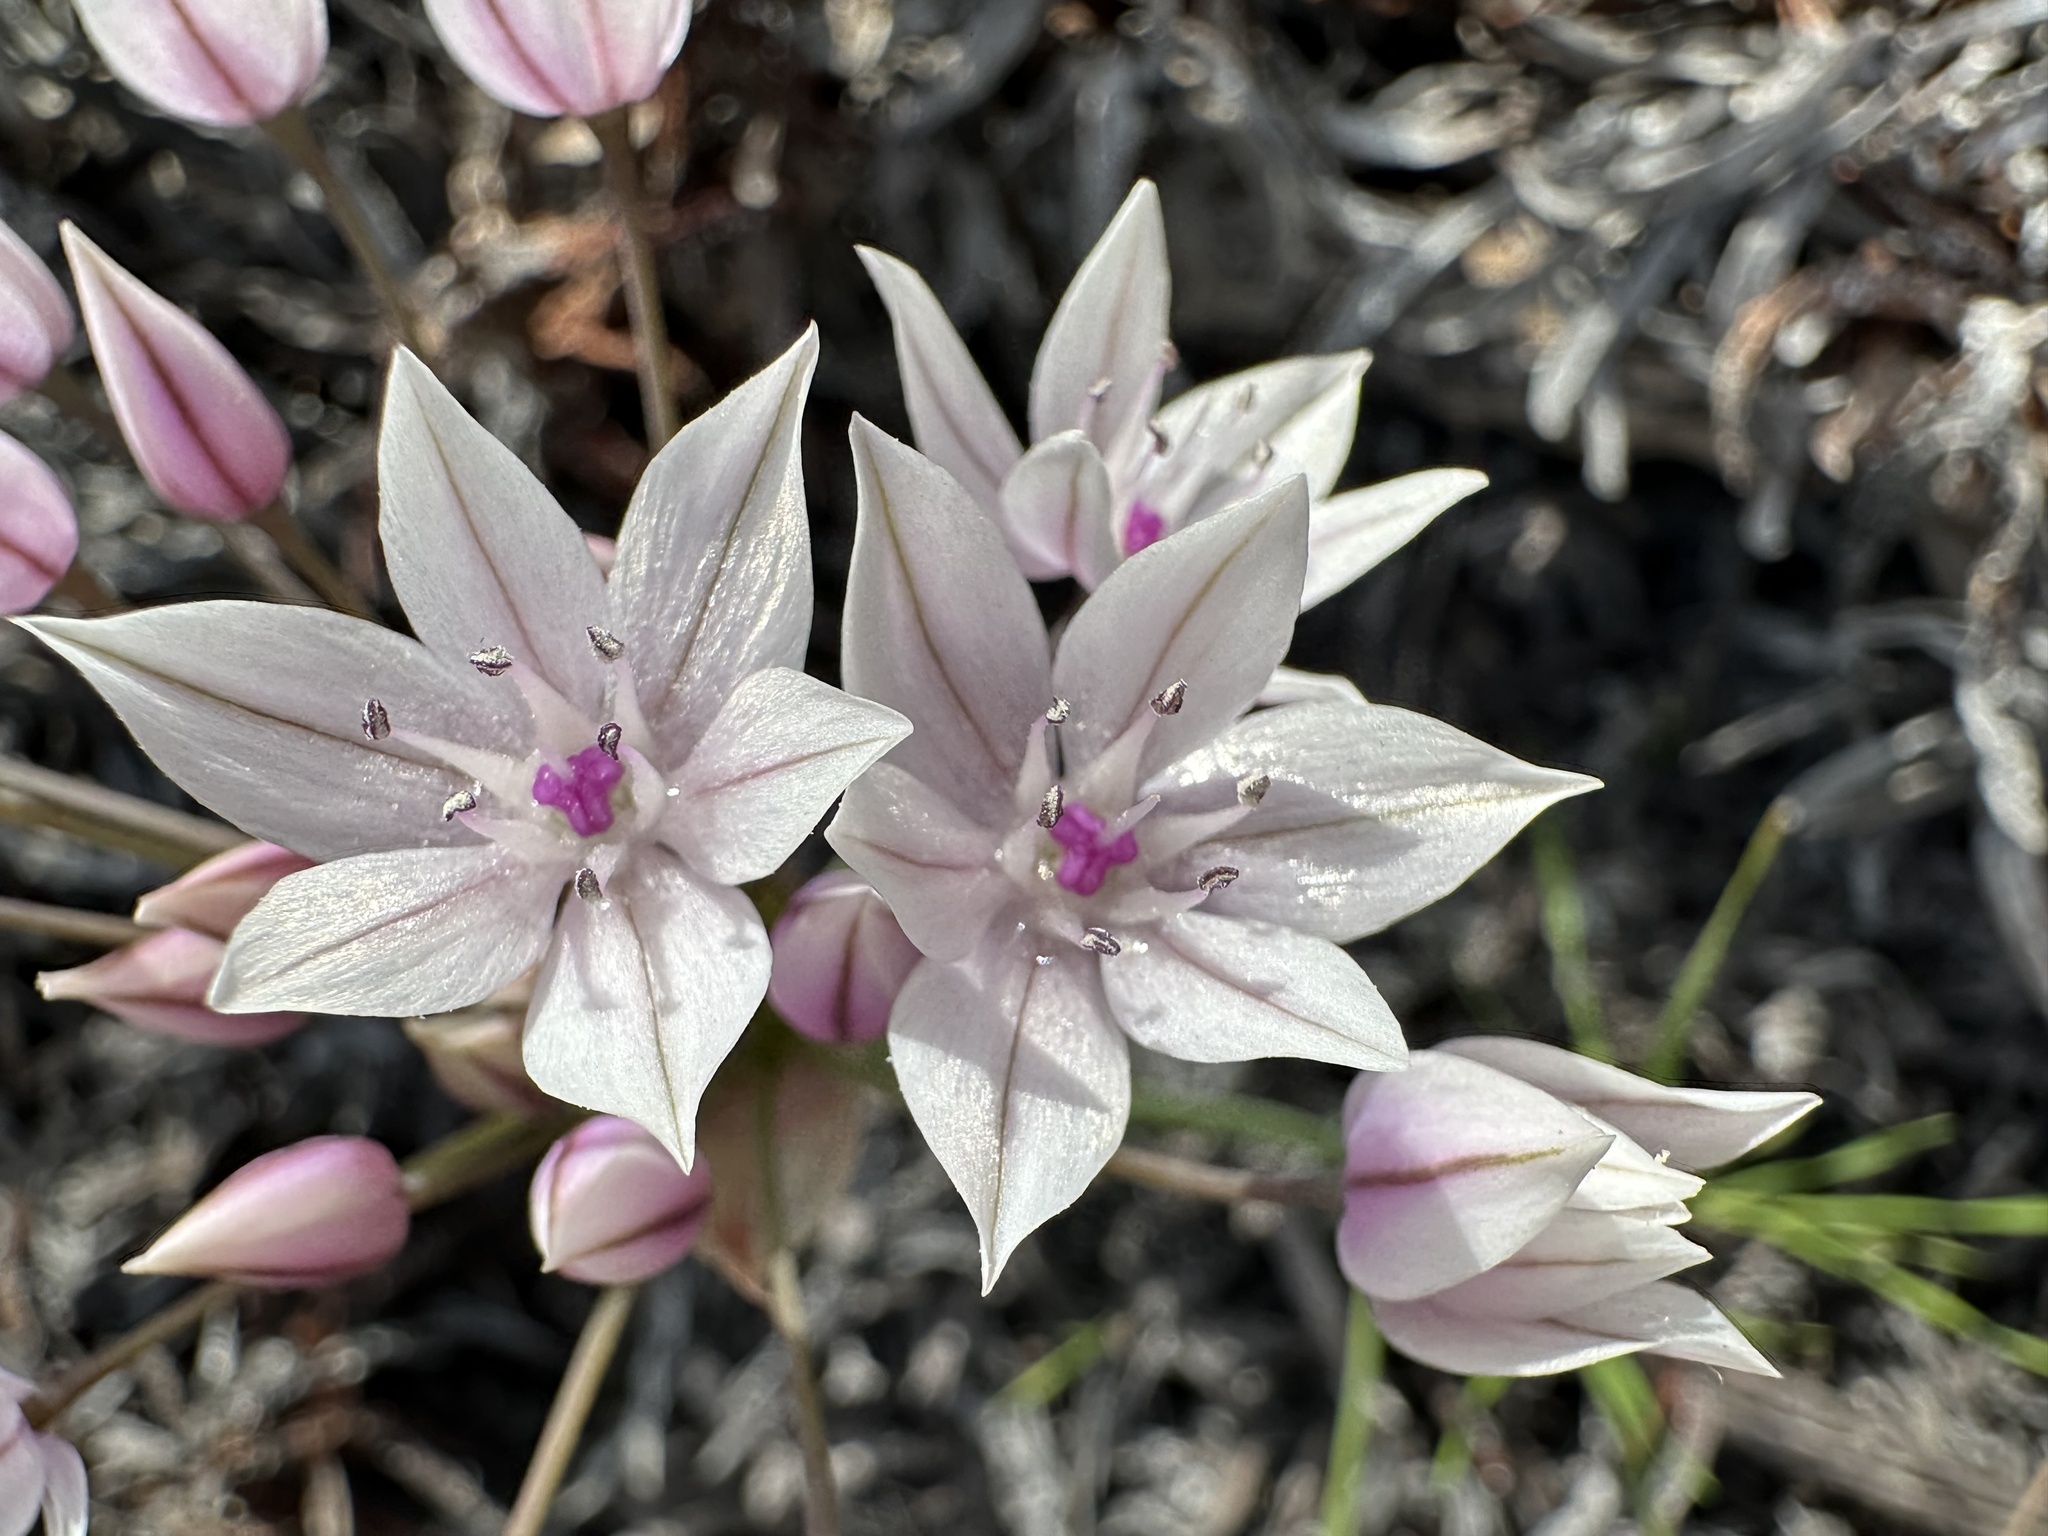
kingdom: Plantae
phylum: Tracheophyta
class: Liliopsida
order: Asparagales
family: Amaryllidaceae
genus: Allium
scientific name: Allium praecox
